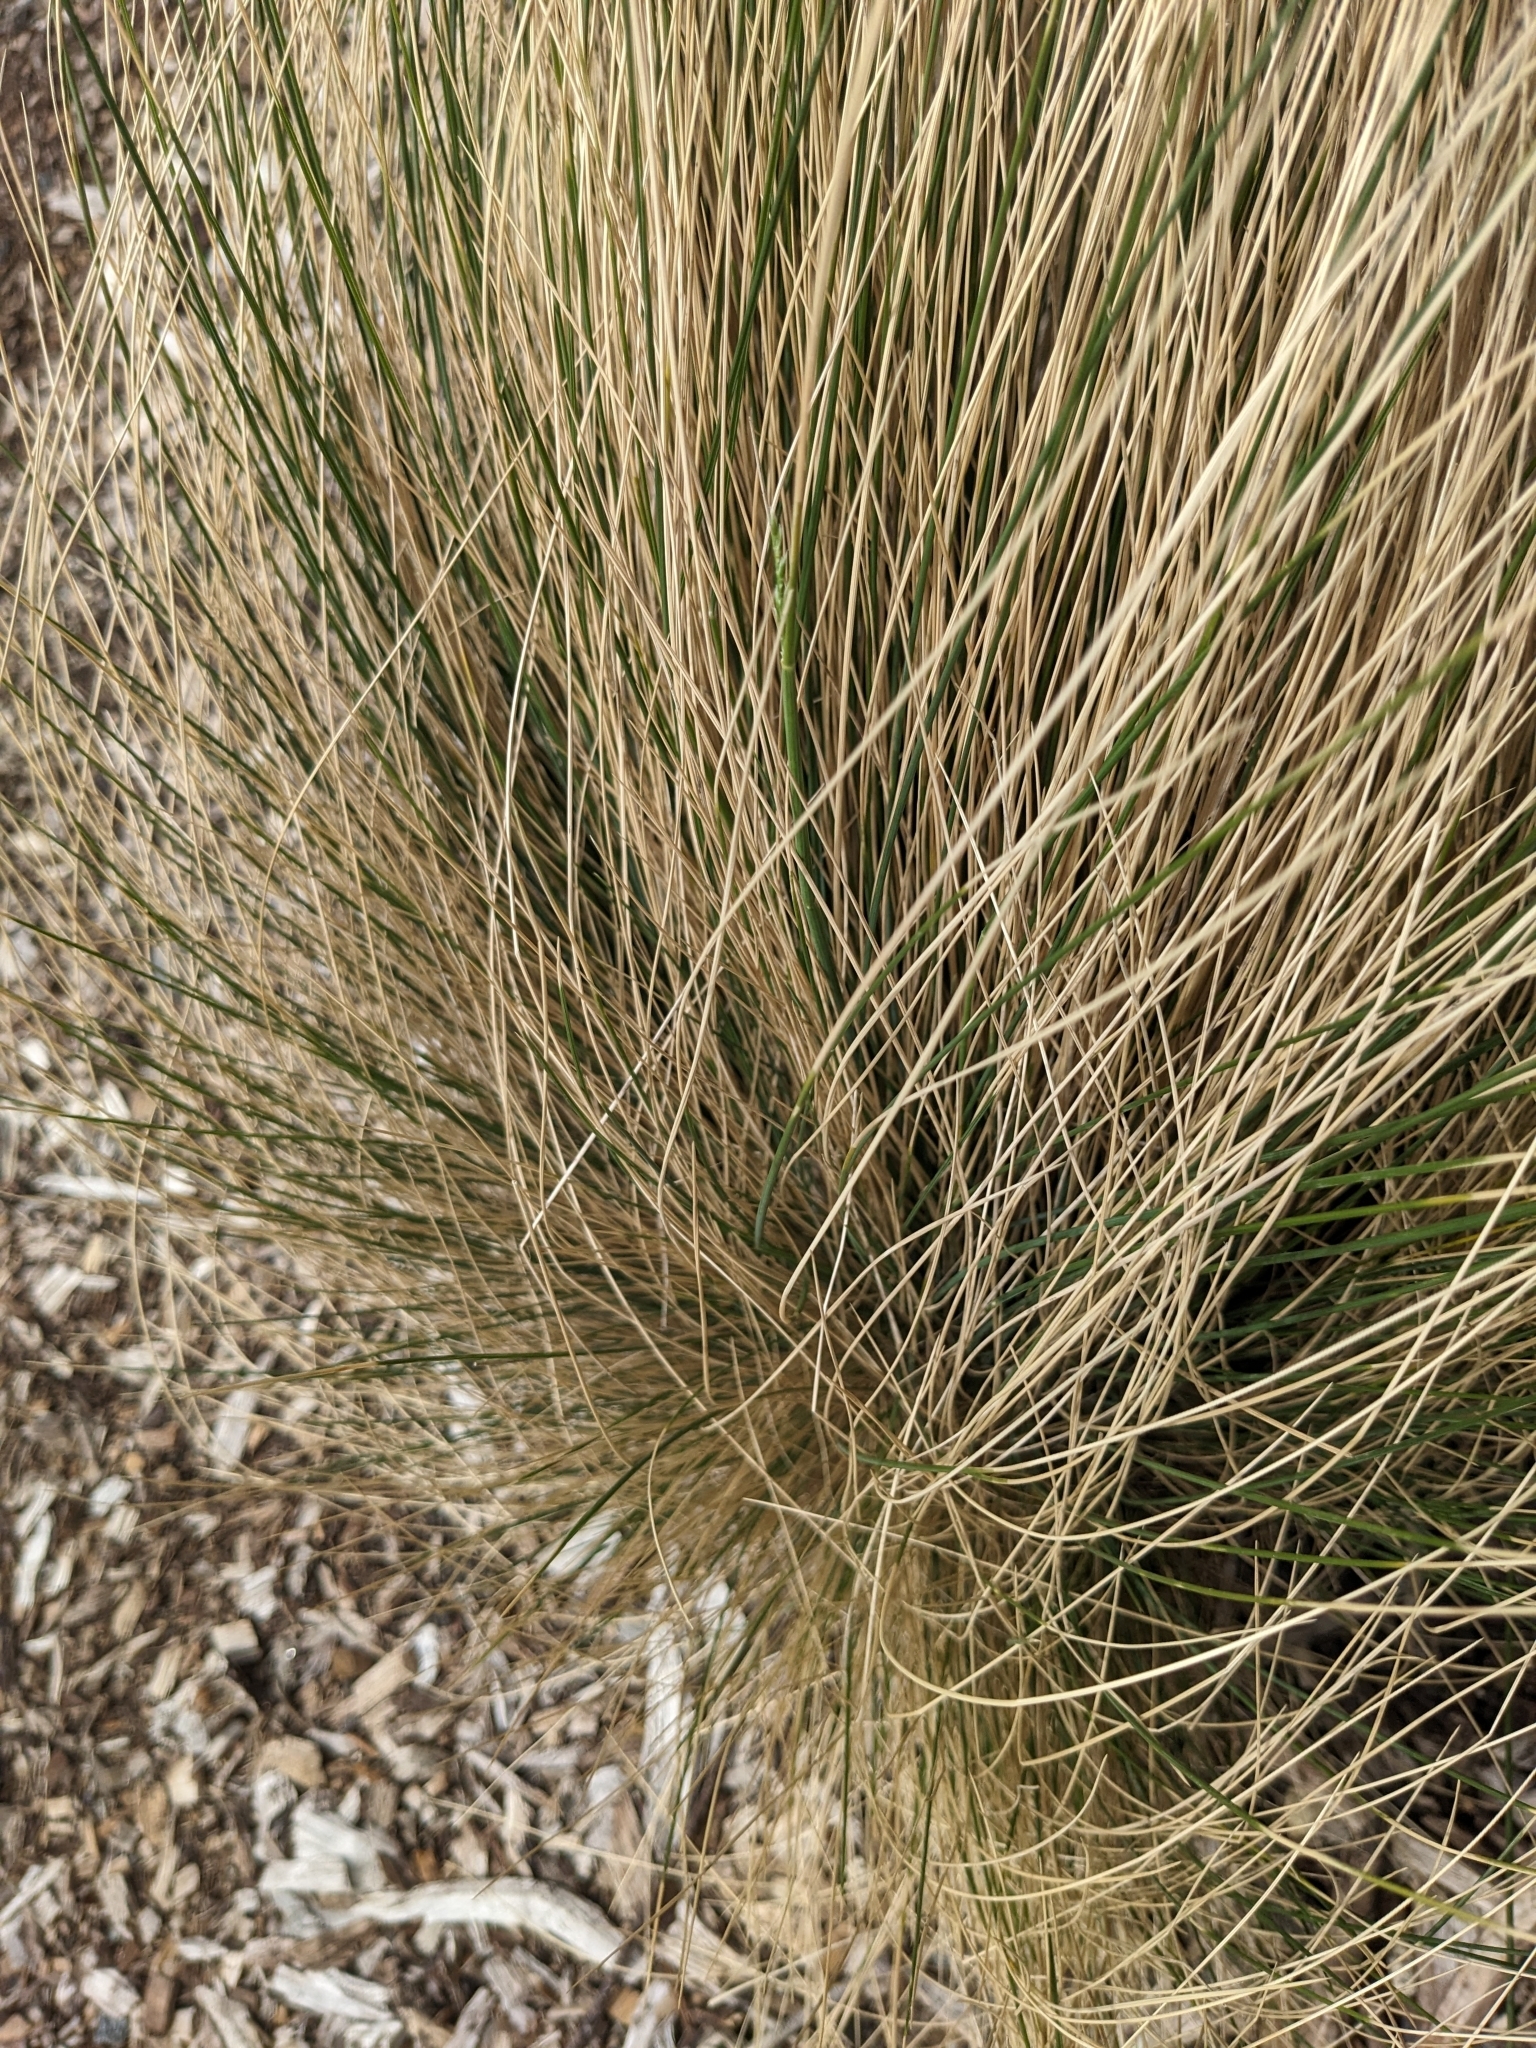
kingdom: Plantae
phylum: Tracheophyta
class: Liliopsida
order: Poales
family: Poaceae
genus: Austrostipa
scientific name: Austrostipa stipoides
